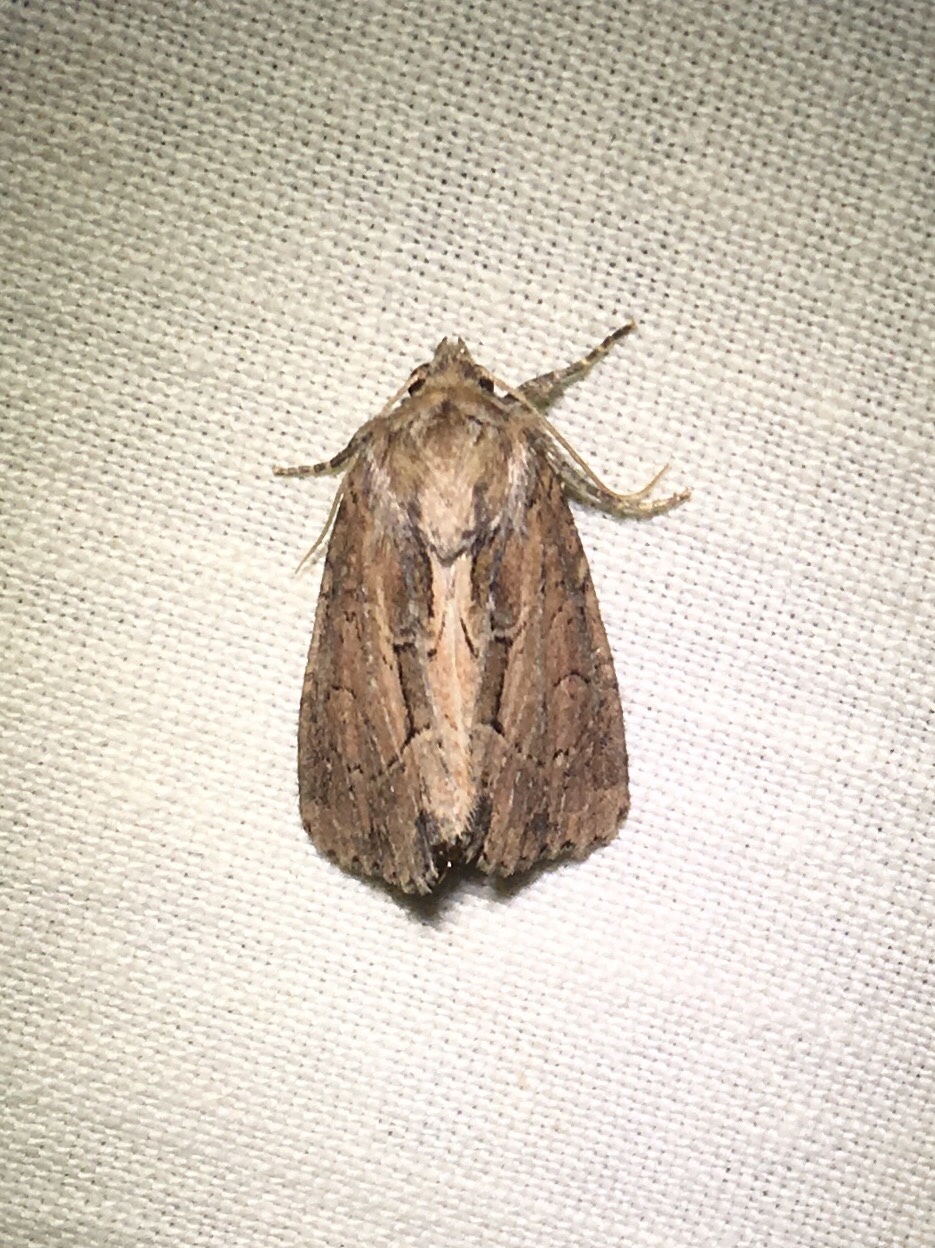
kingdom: Animalia
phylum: Arthropoda
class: Insecta
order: Lepidoptera
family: Noctuidae
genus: Xylomoia
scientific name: Xylomoia chagnoni
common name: Reed canary grass borer moth
